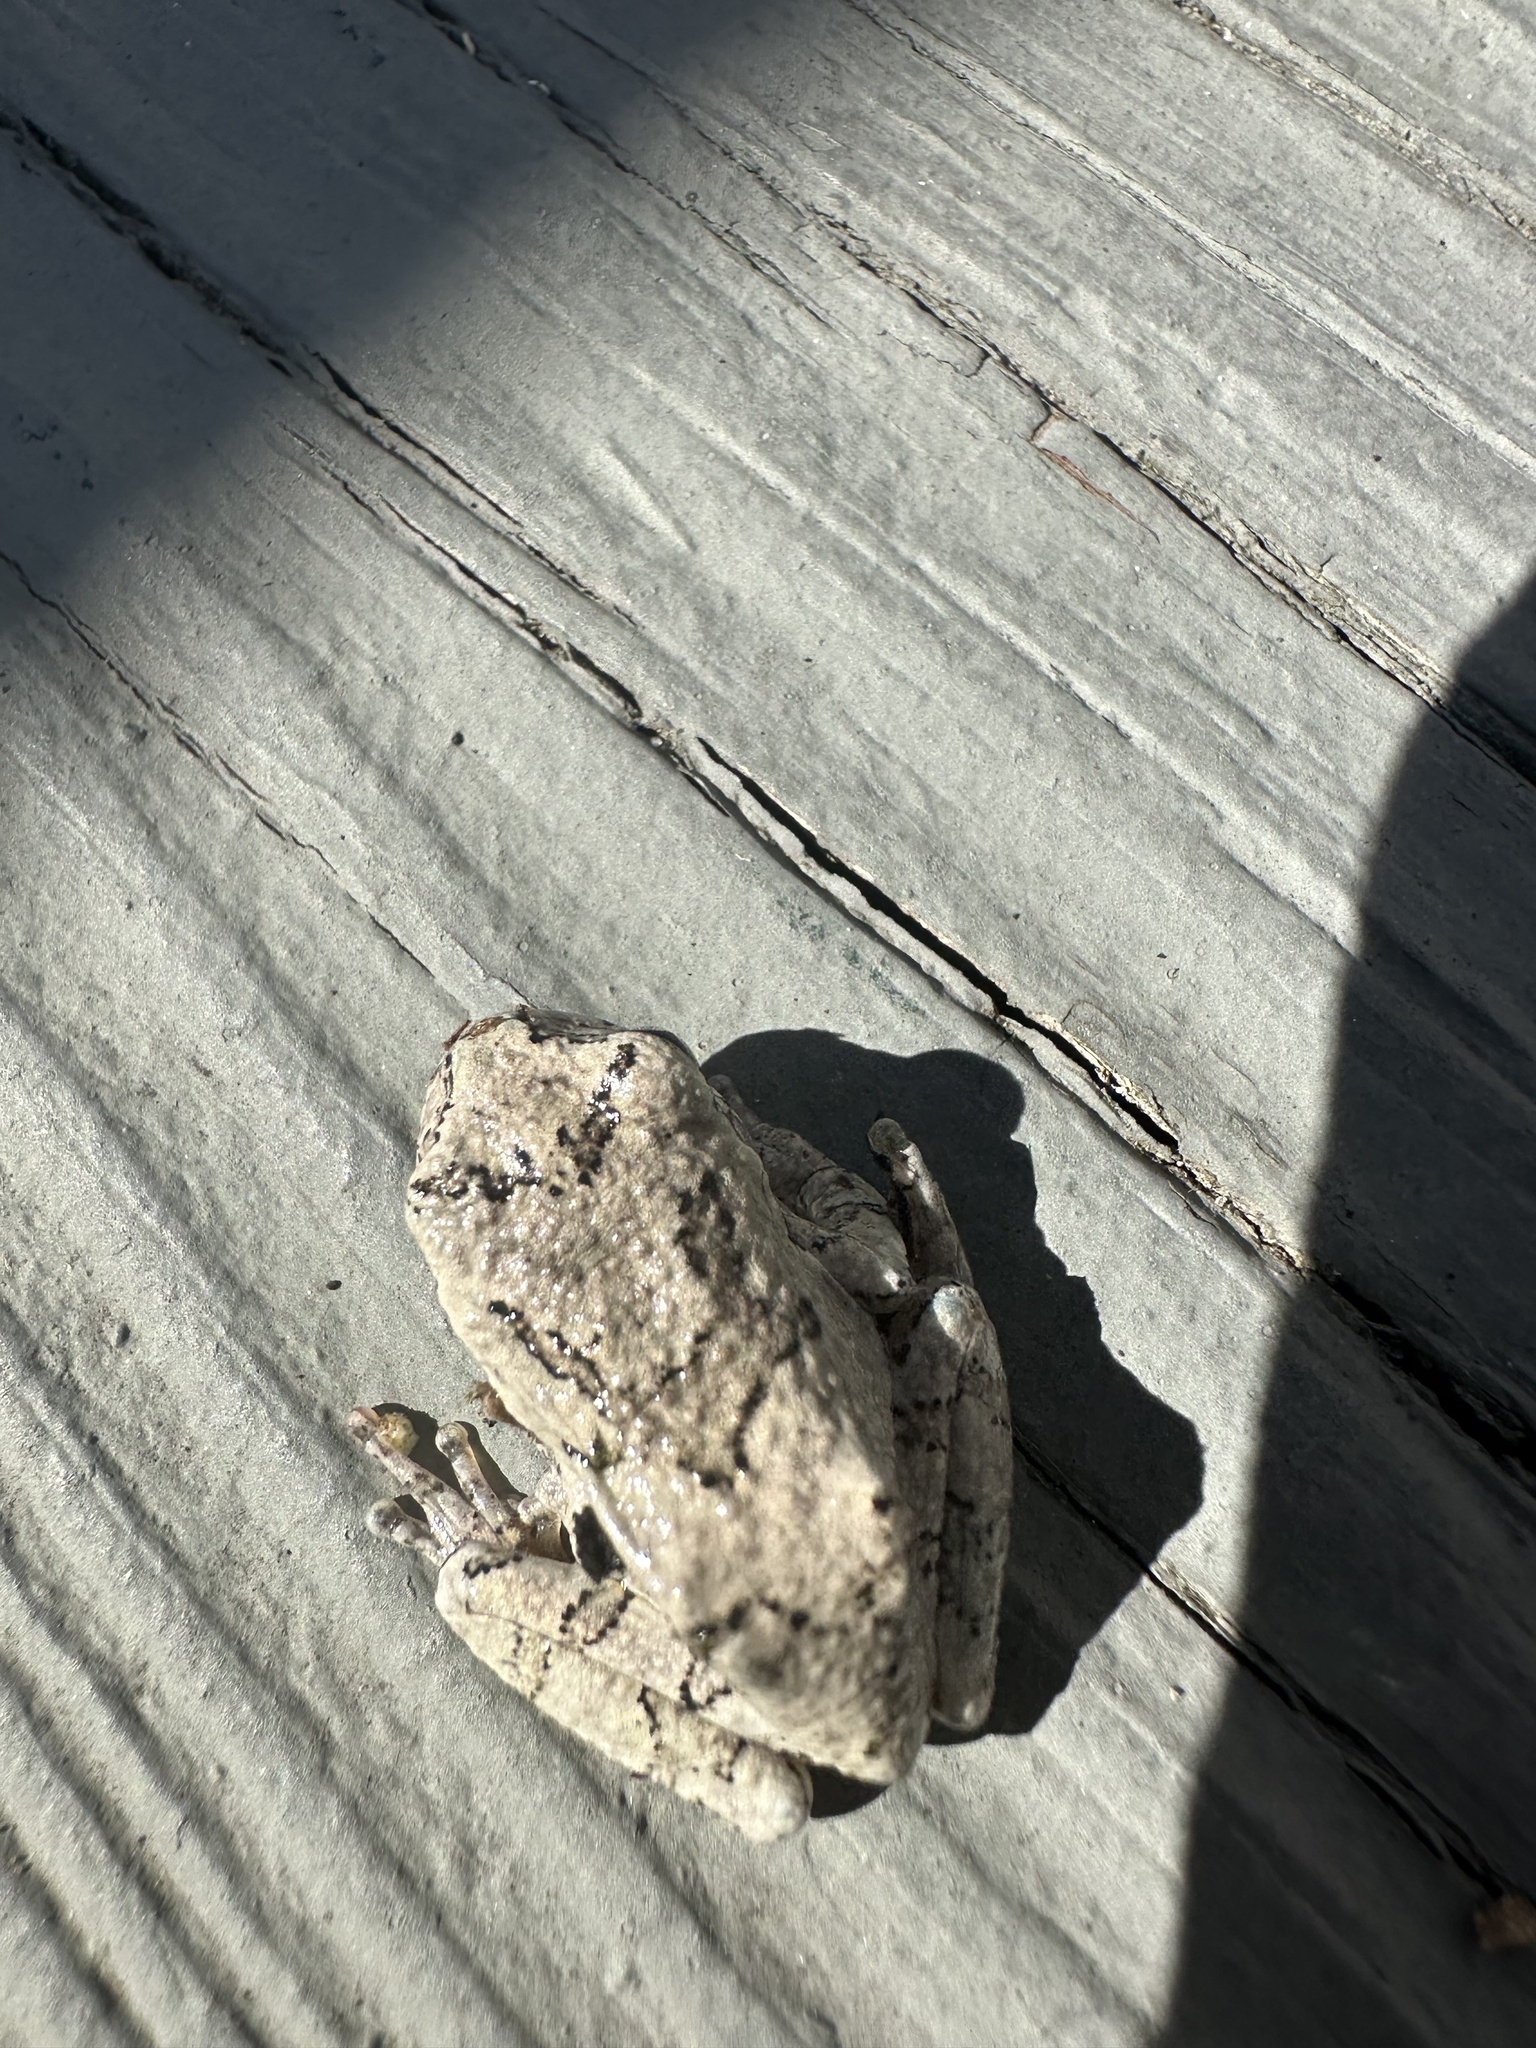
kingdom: Animalia
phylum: Chordata
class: Amphibia
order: Anura
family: Hylidae
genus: Dryophytes
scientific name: Dryophytes versicolor
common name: Gray treefrog
